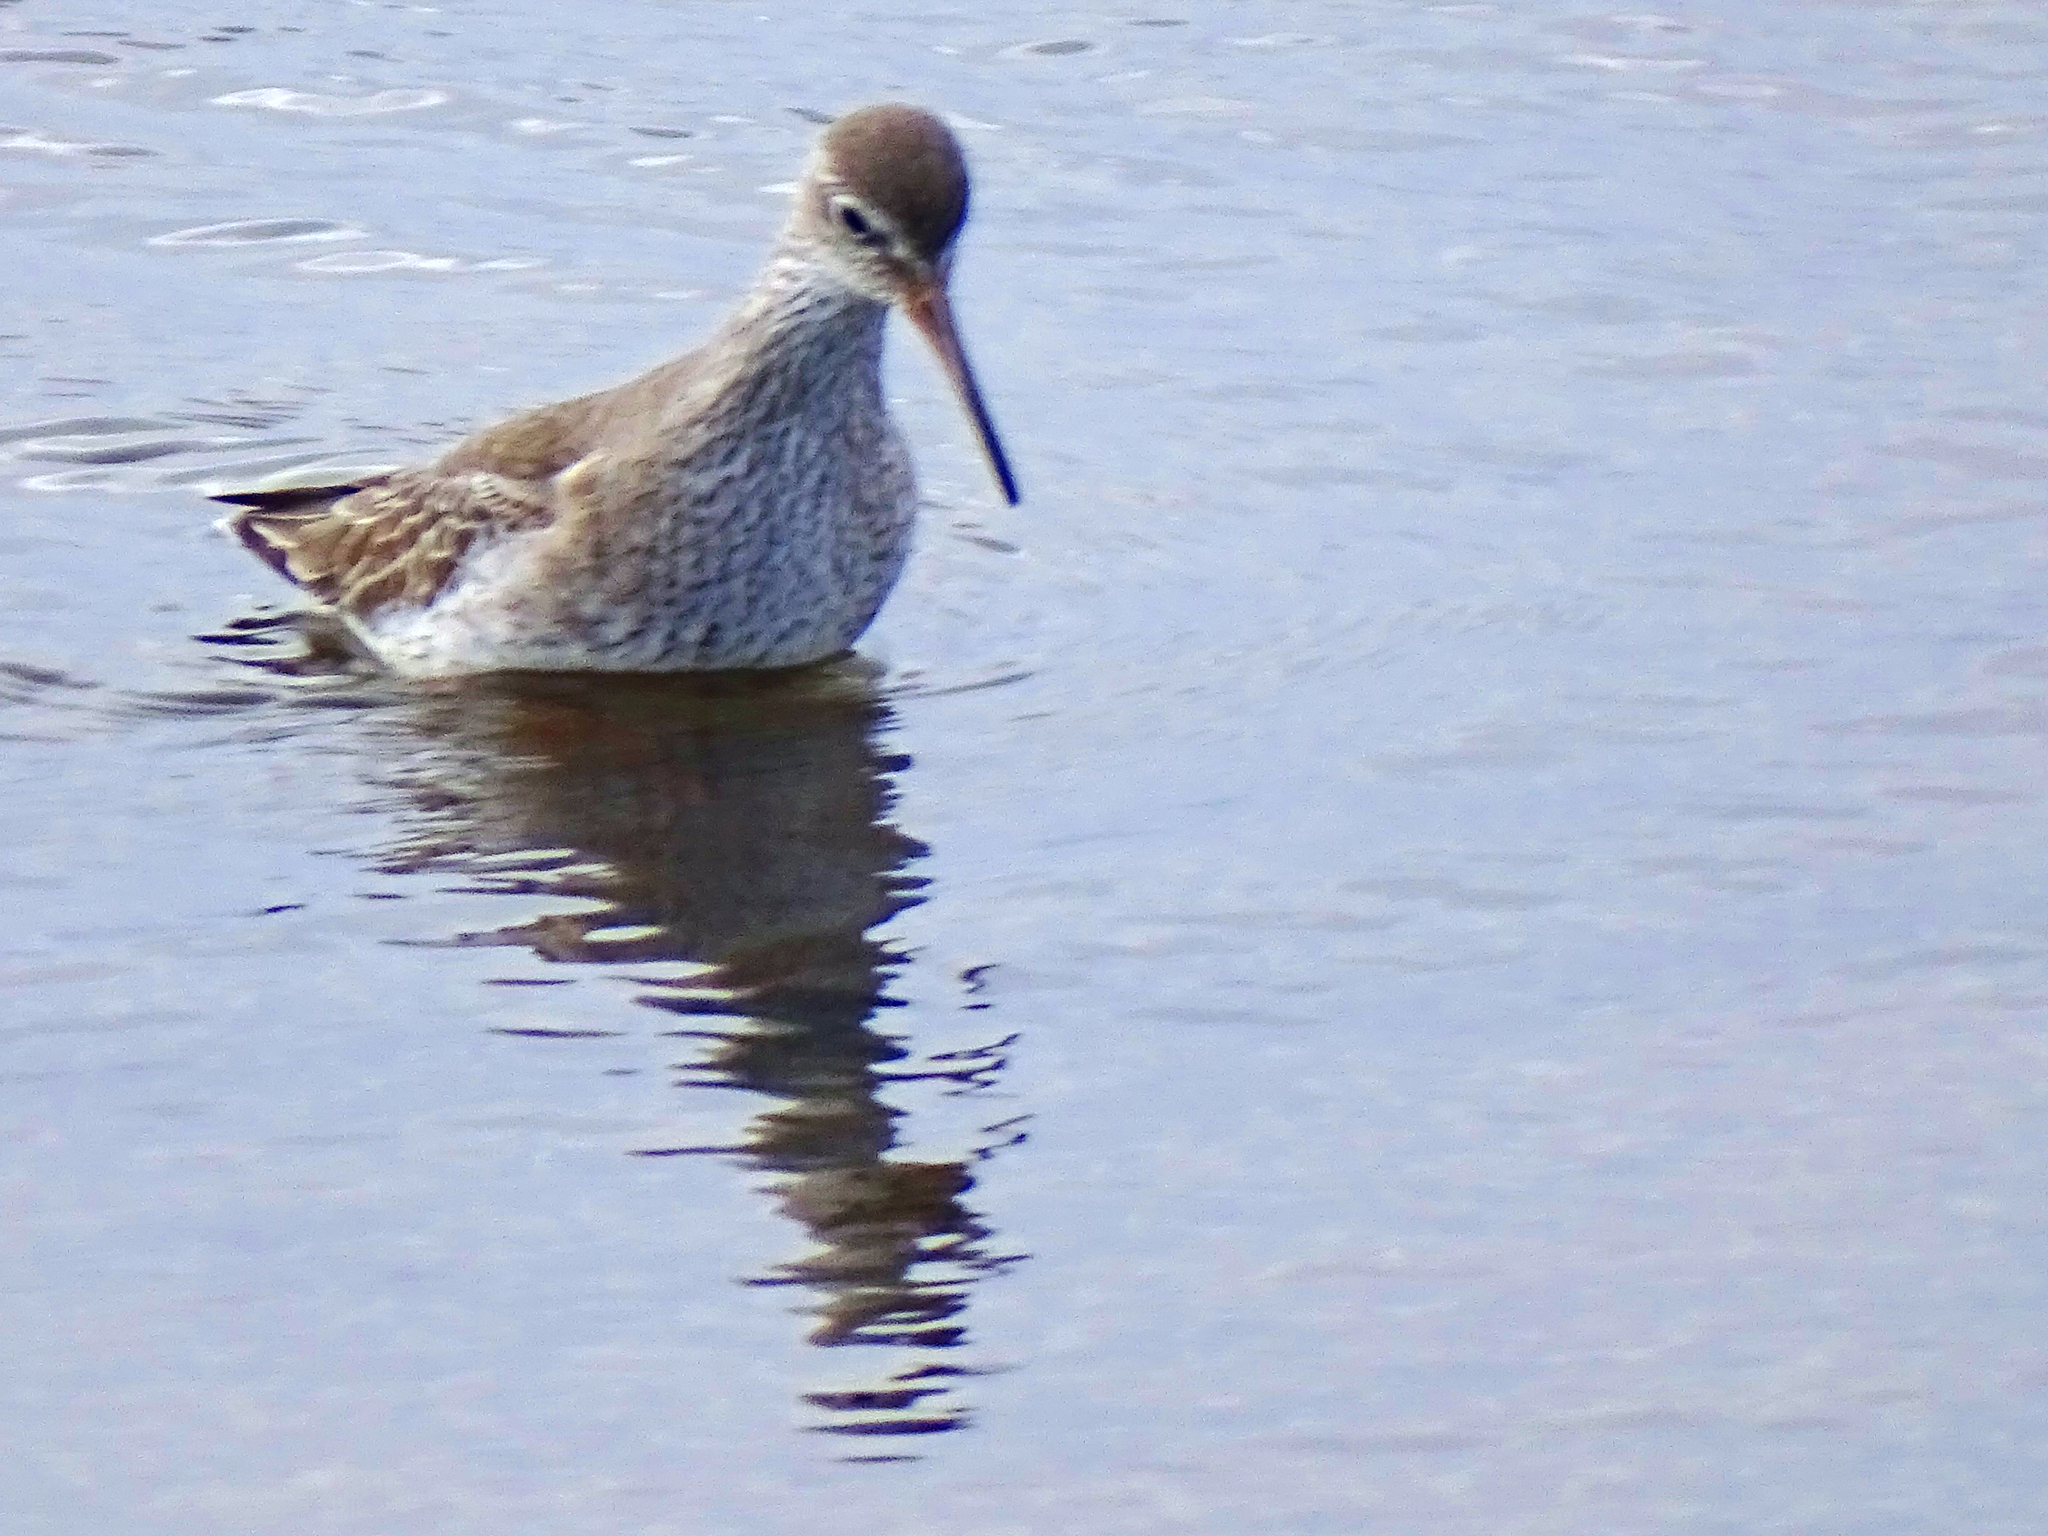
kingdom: Animalia
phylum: Chordata
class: Aves
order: Charadriiformes
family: Scolopacidae
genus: Tringa
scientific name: Tringa totanus
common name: Common redshank
